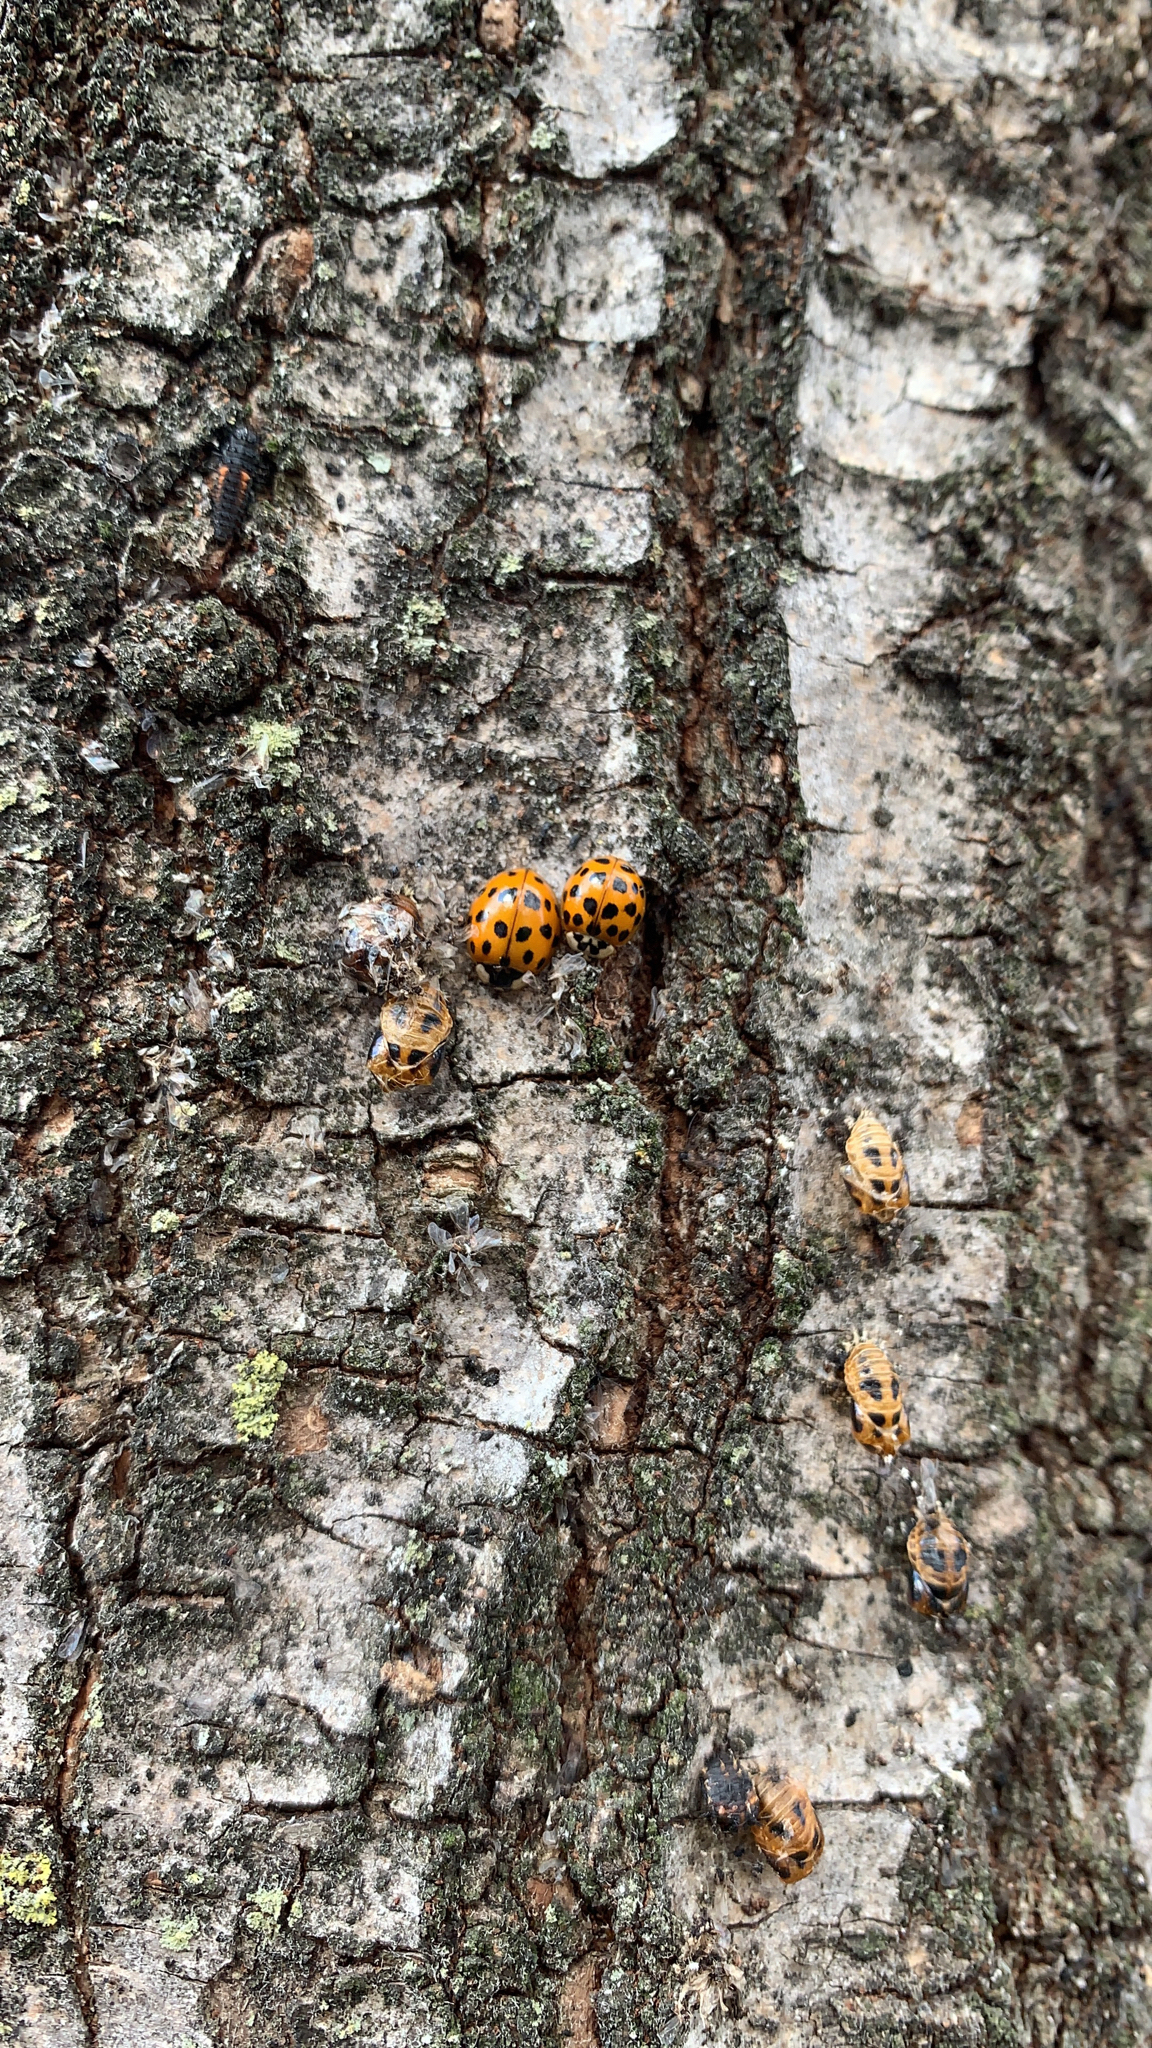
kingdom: Animalia
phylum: Arthropoda
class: Insecta
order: Coleoptera
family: Coccinellidae
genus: Harmonia
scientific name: Harmonia axyridis
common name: Harlequin ladybird
